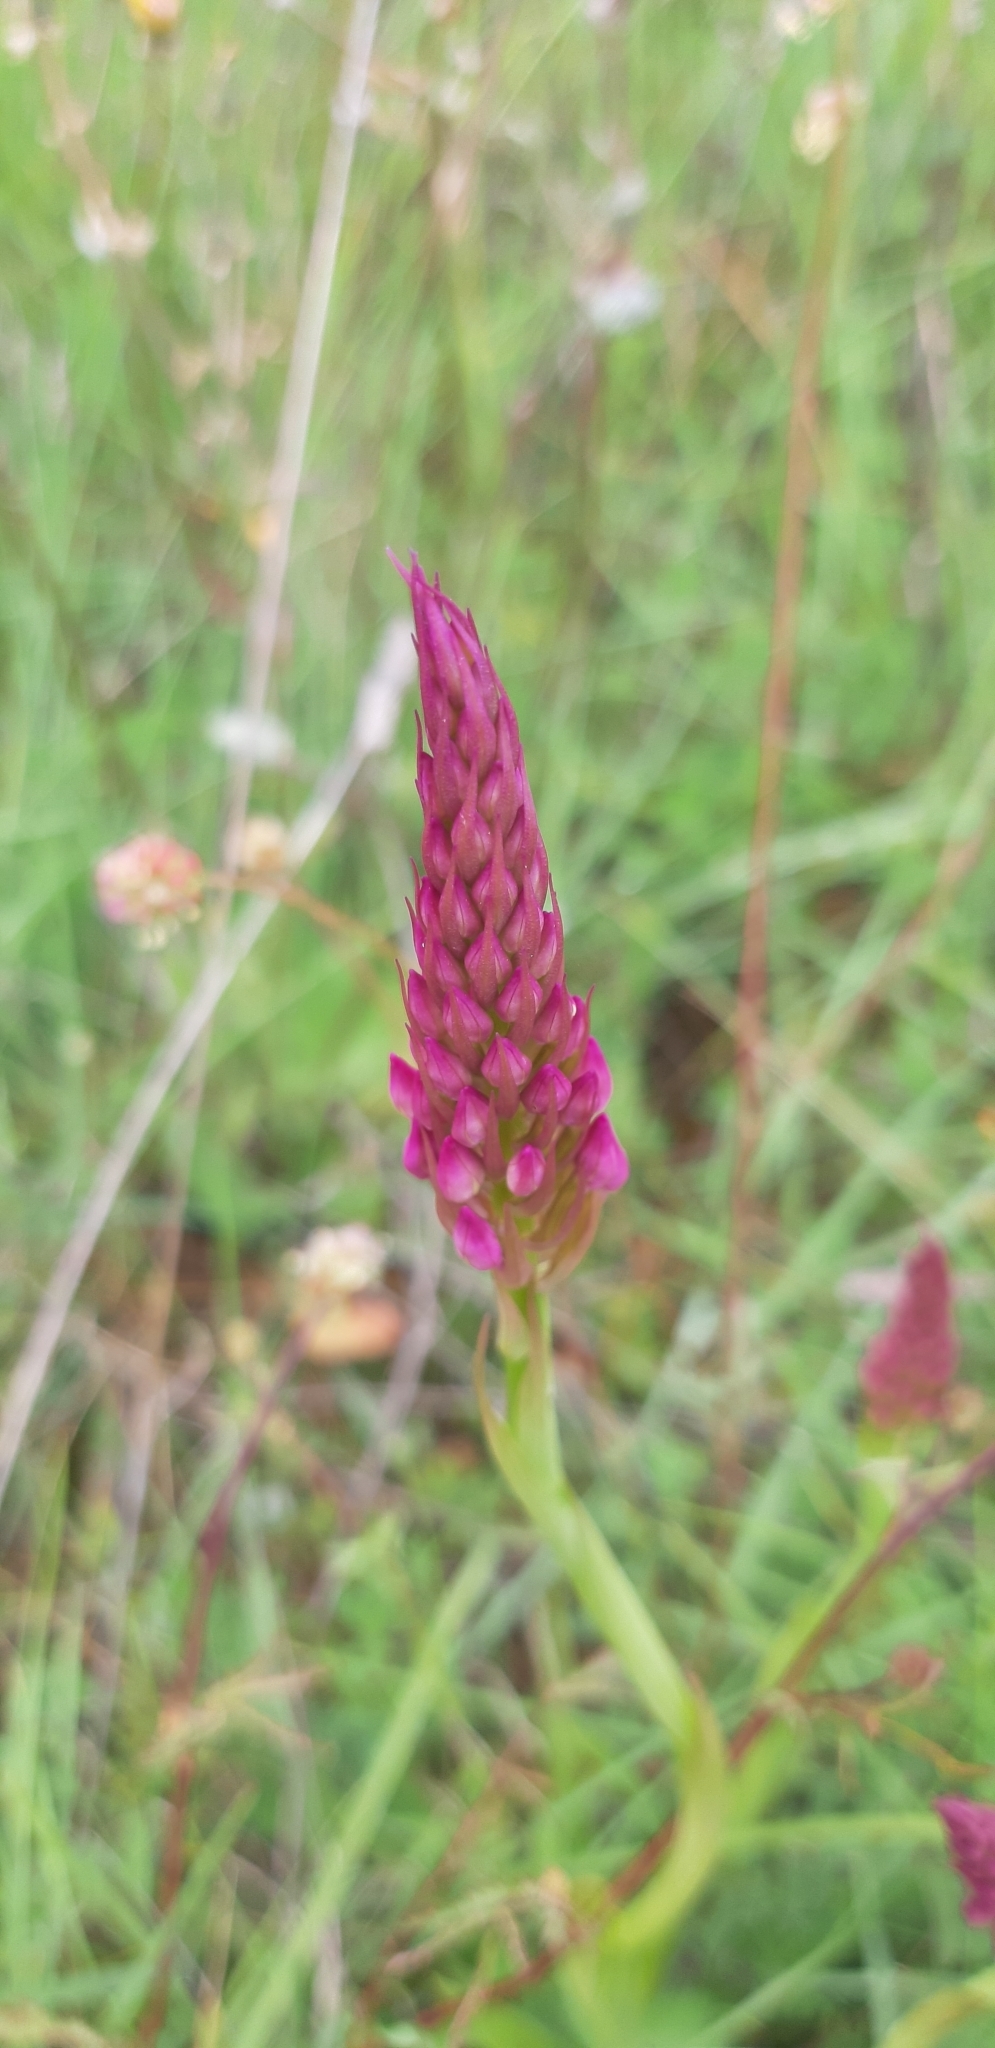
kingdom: Plantae
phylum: Tracheophyta
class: Liliopsida
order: Asparagales
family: Orchidaceae
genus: Anacamptis
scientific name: Anacamptis pyramidalis
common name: Pyramidal orchid
